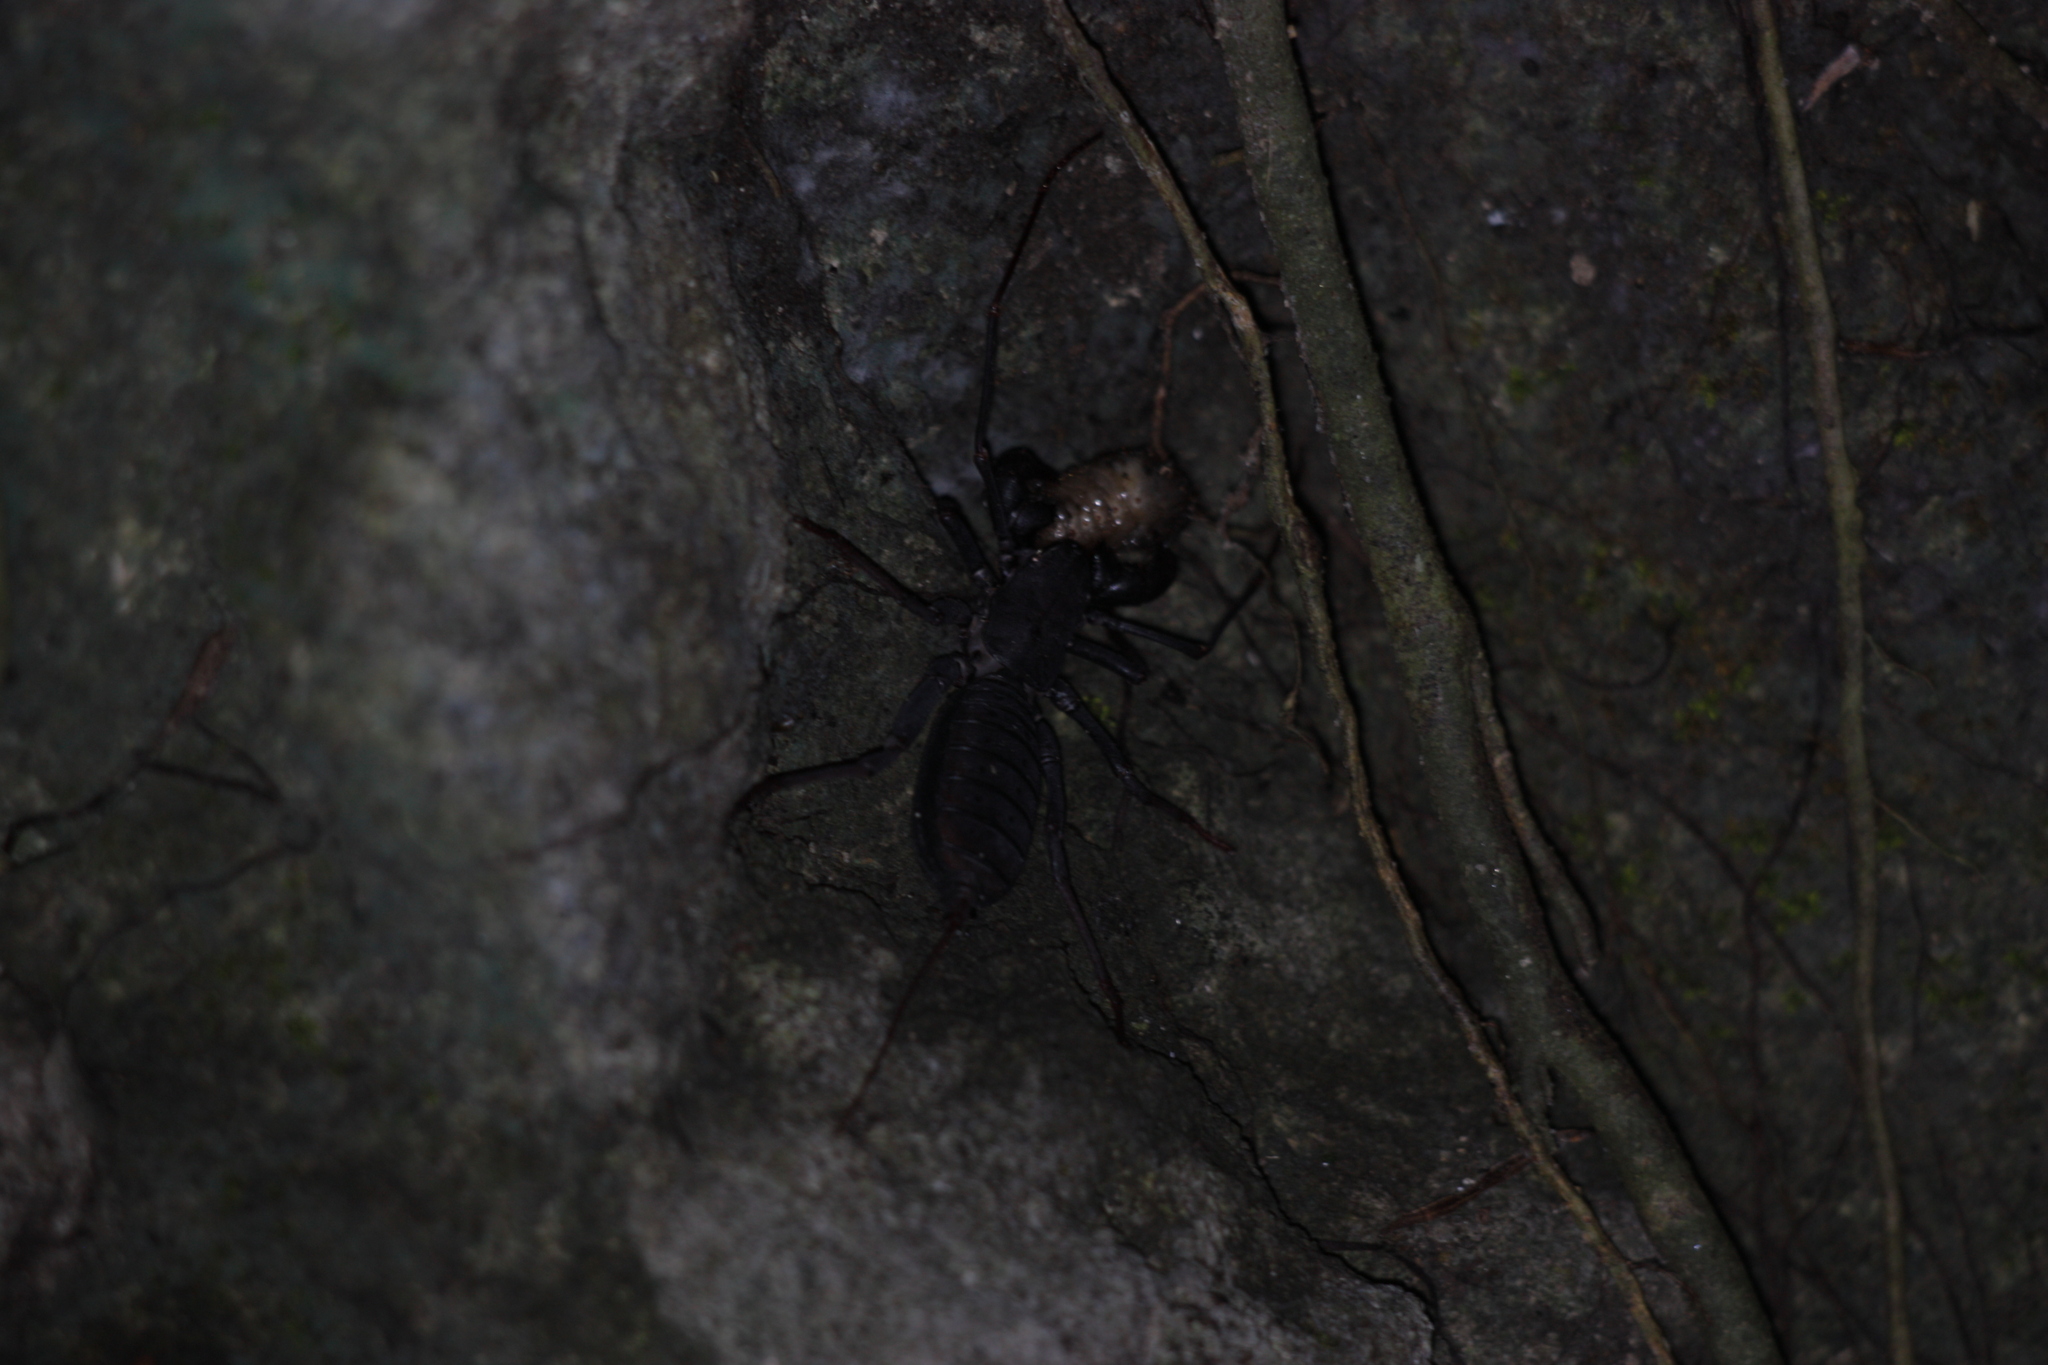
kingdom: Animalia
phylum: Arthropoda
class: Arachnida
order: Uropygi
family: Thelyphonidae
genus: Typopeltis
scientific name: Typopeltis crucifer
